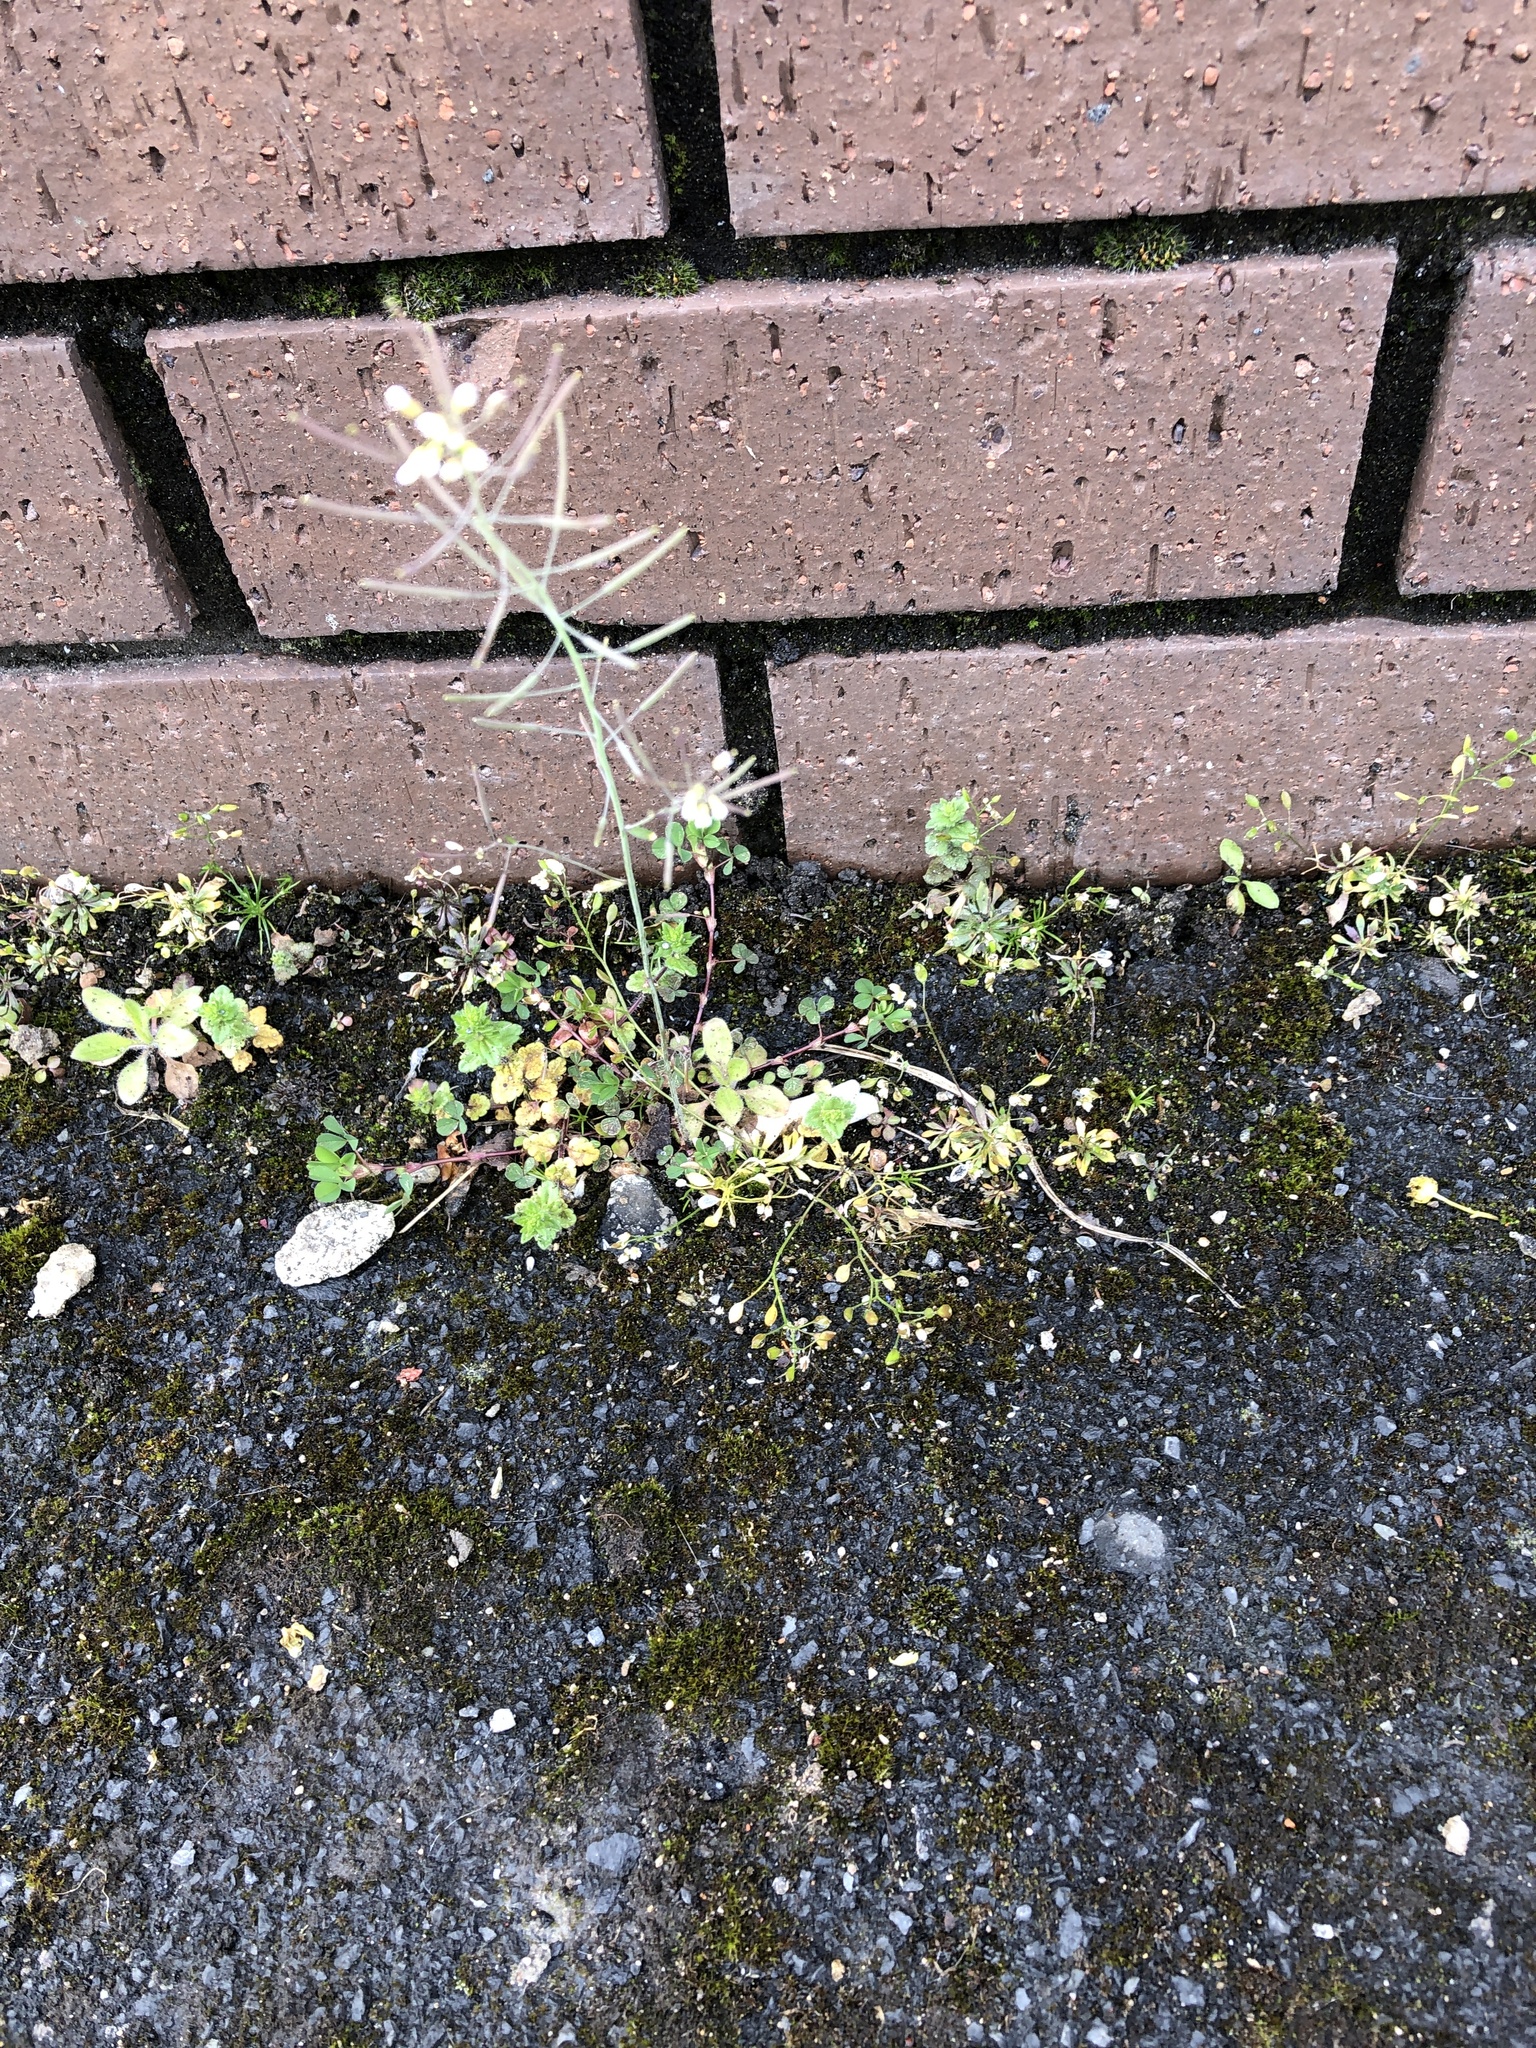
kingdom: Plantae
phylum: Tracheophyta
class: Magnoliopsida
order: Brassicales
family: Brassicaceae
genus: Arabidopsis
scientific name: Arabidopsis thaliana
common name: Thale cress
